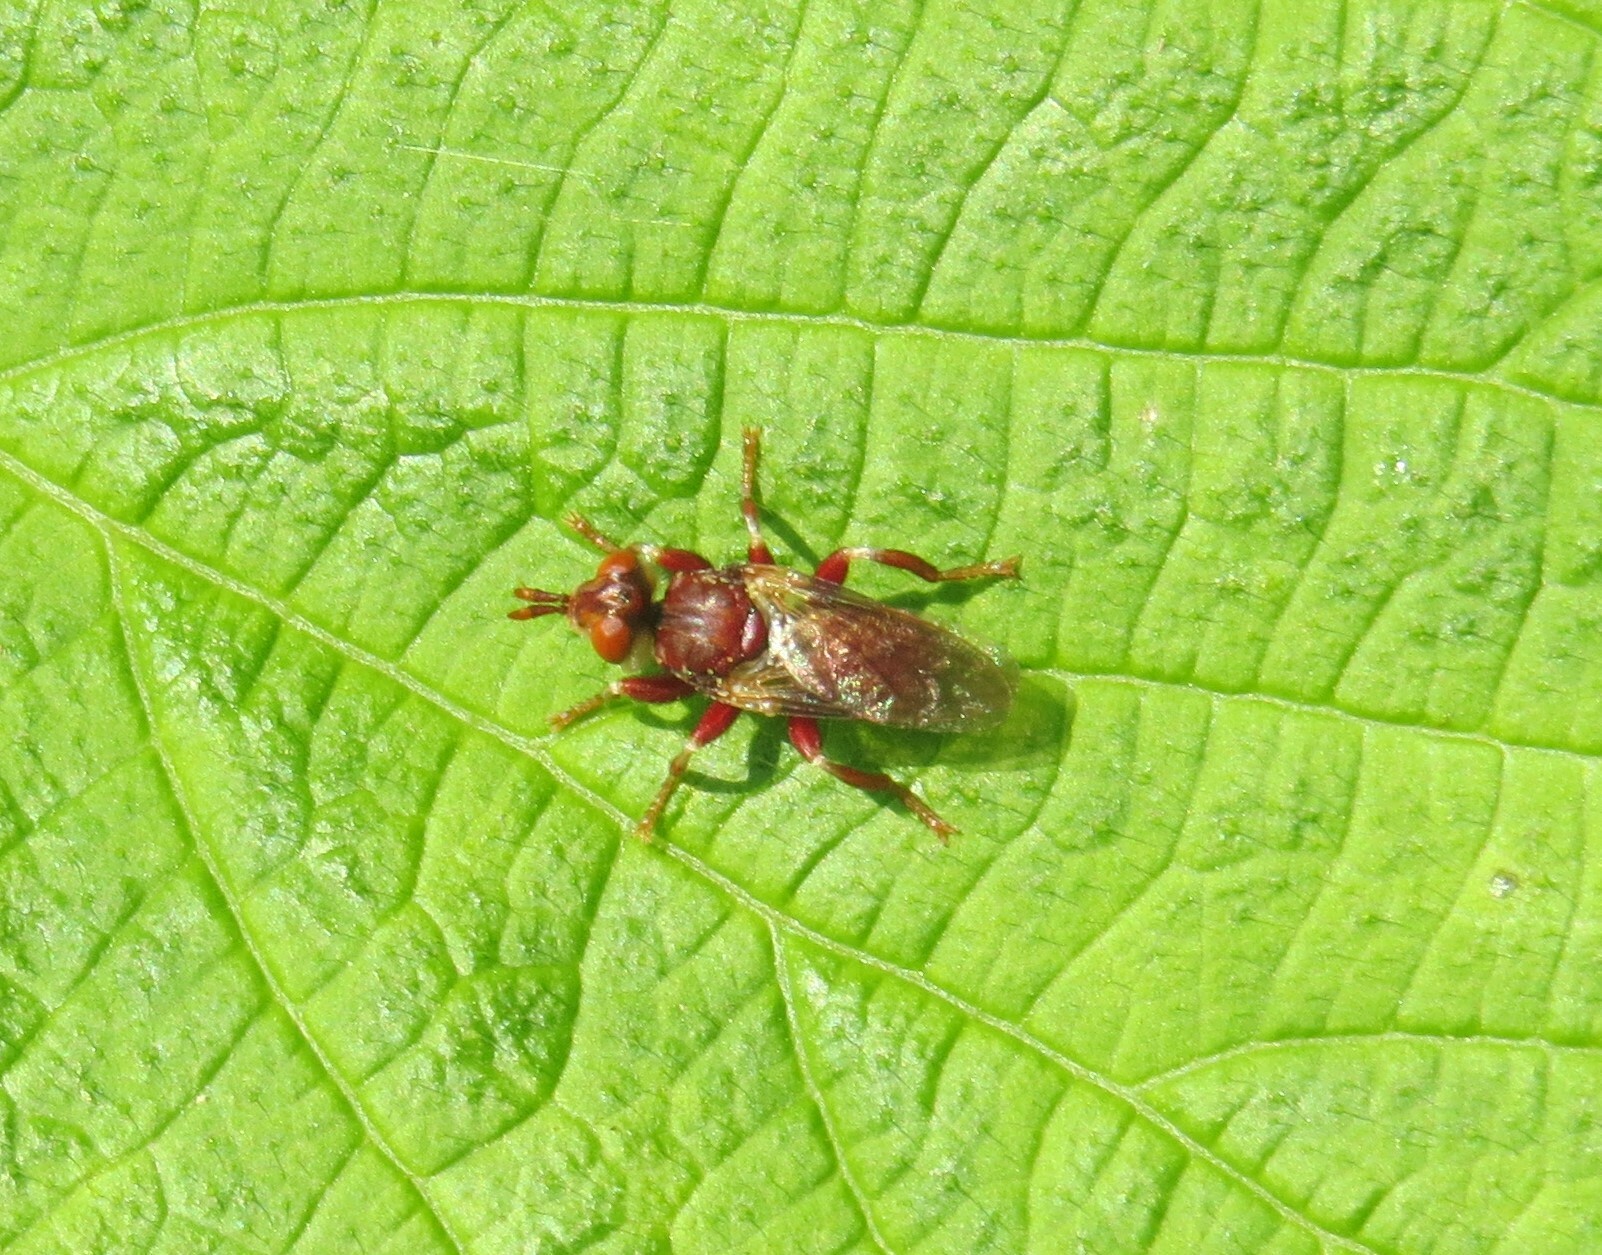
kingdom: Animalia
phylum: Arthropoda
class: Insecta
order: Diptera
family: Conopidae
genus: Myopa
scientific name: Myopa clausa
